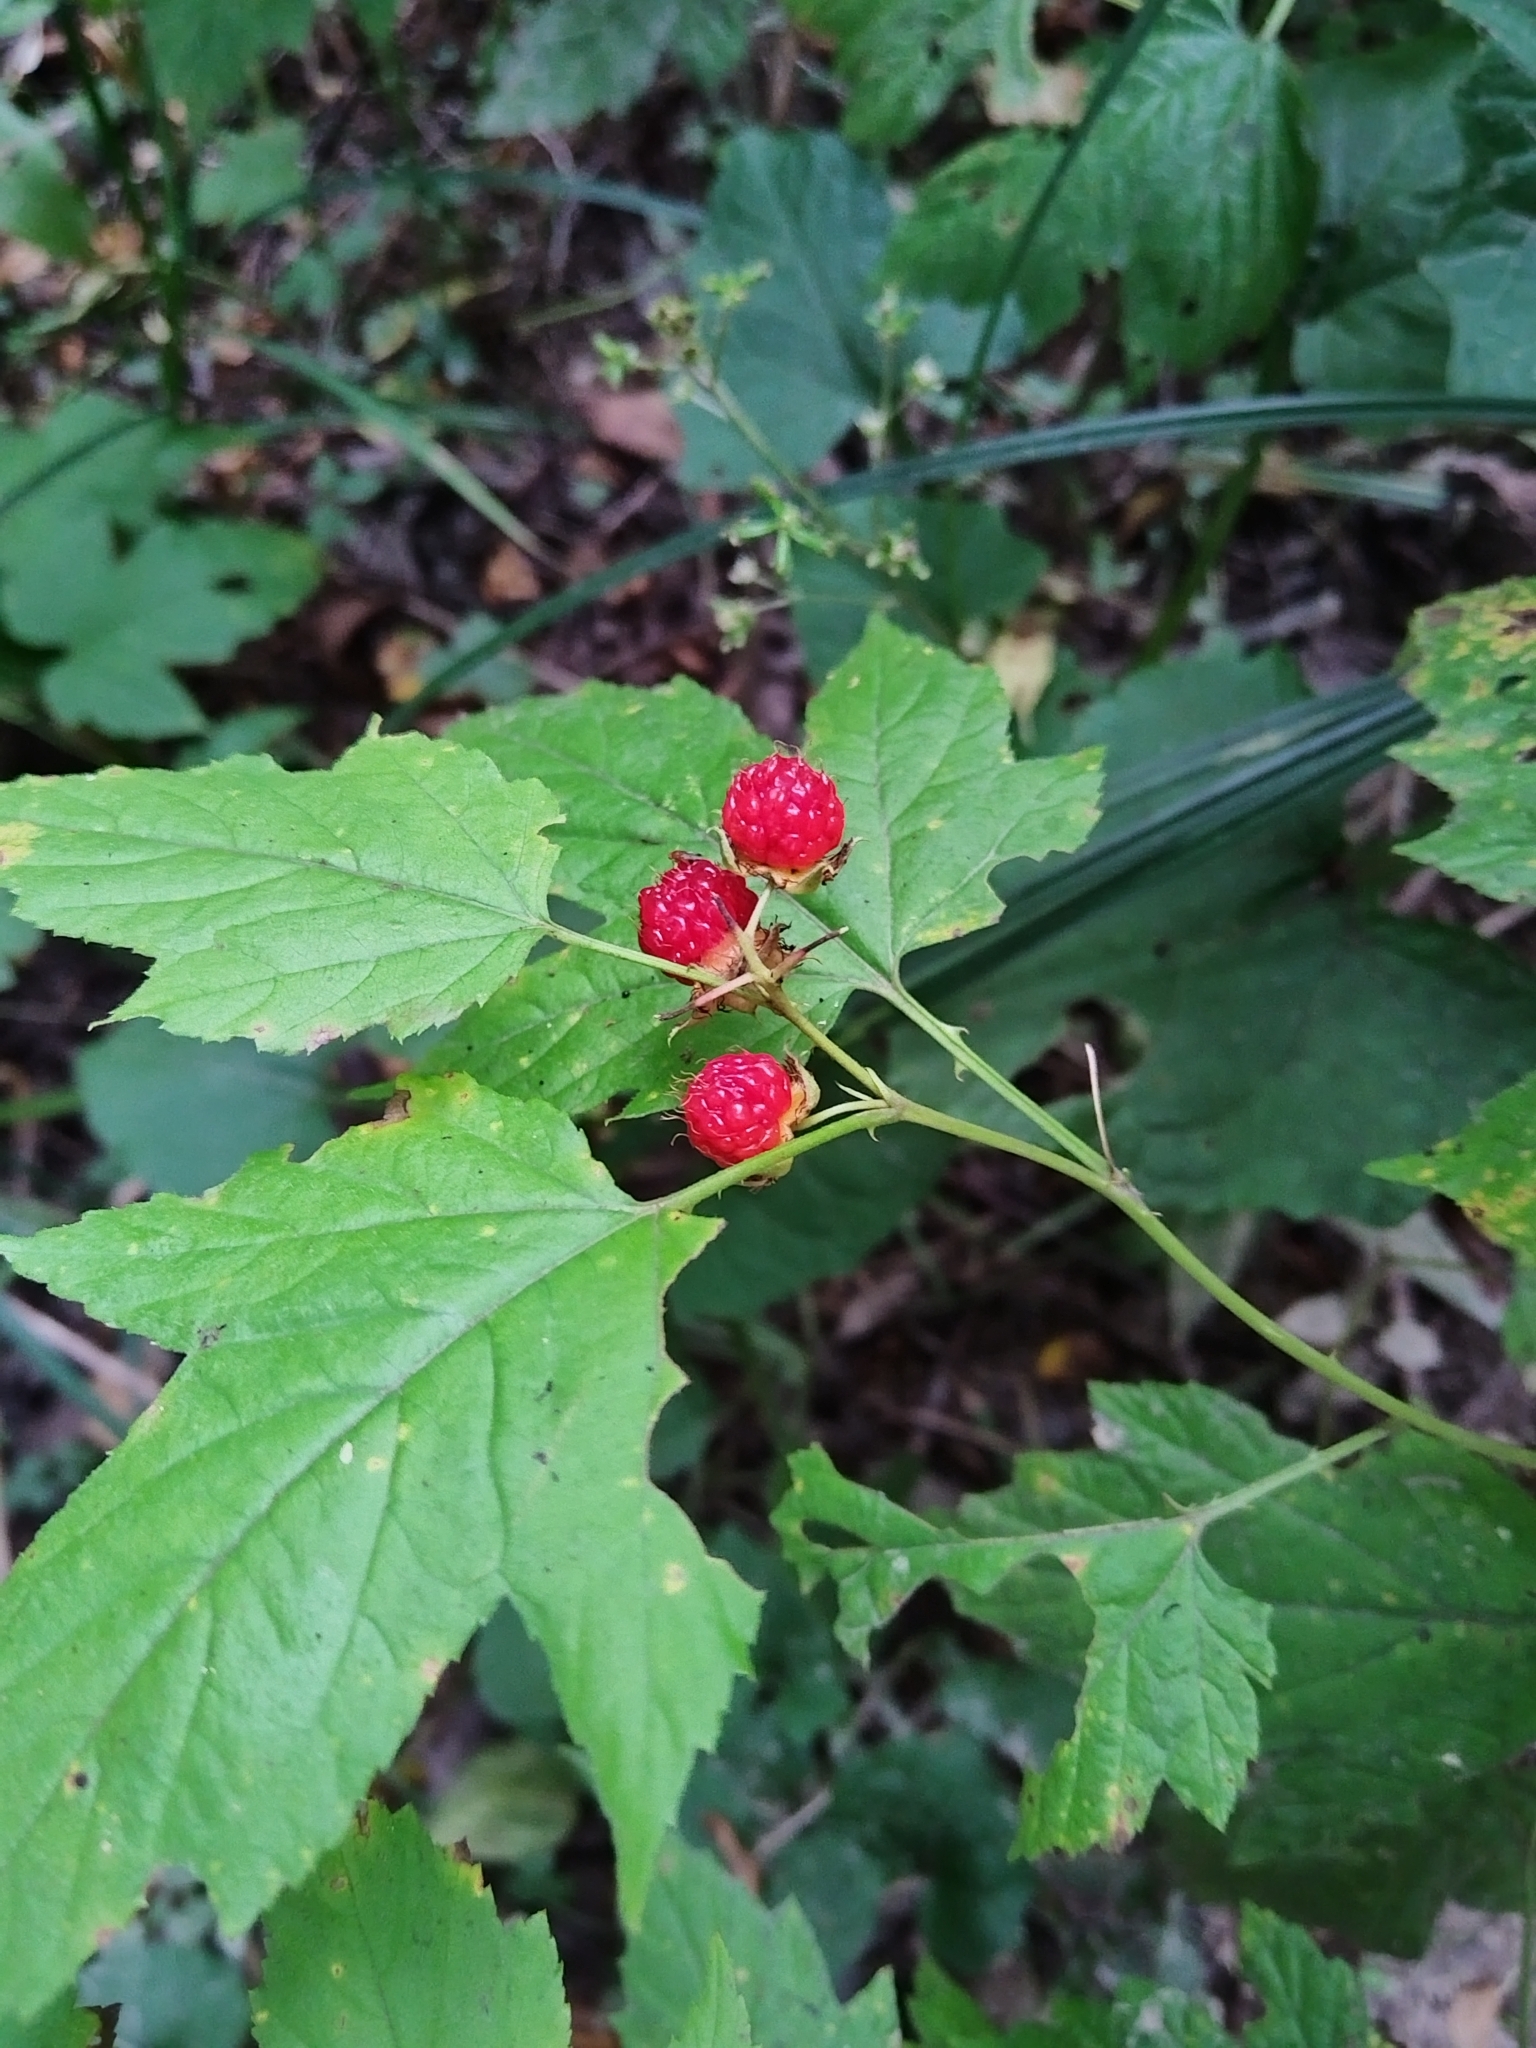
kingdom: Plantae
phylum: Tracheophyta
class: Magnoliopsida
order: Rosales
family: Rosaceae
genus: Rubus
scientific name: Rubus crataegifolius
